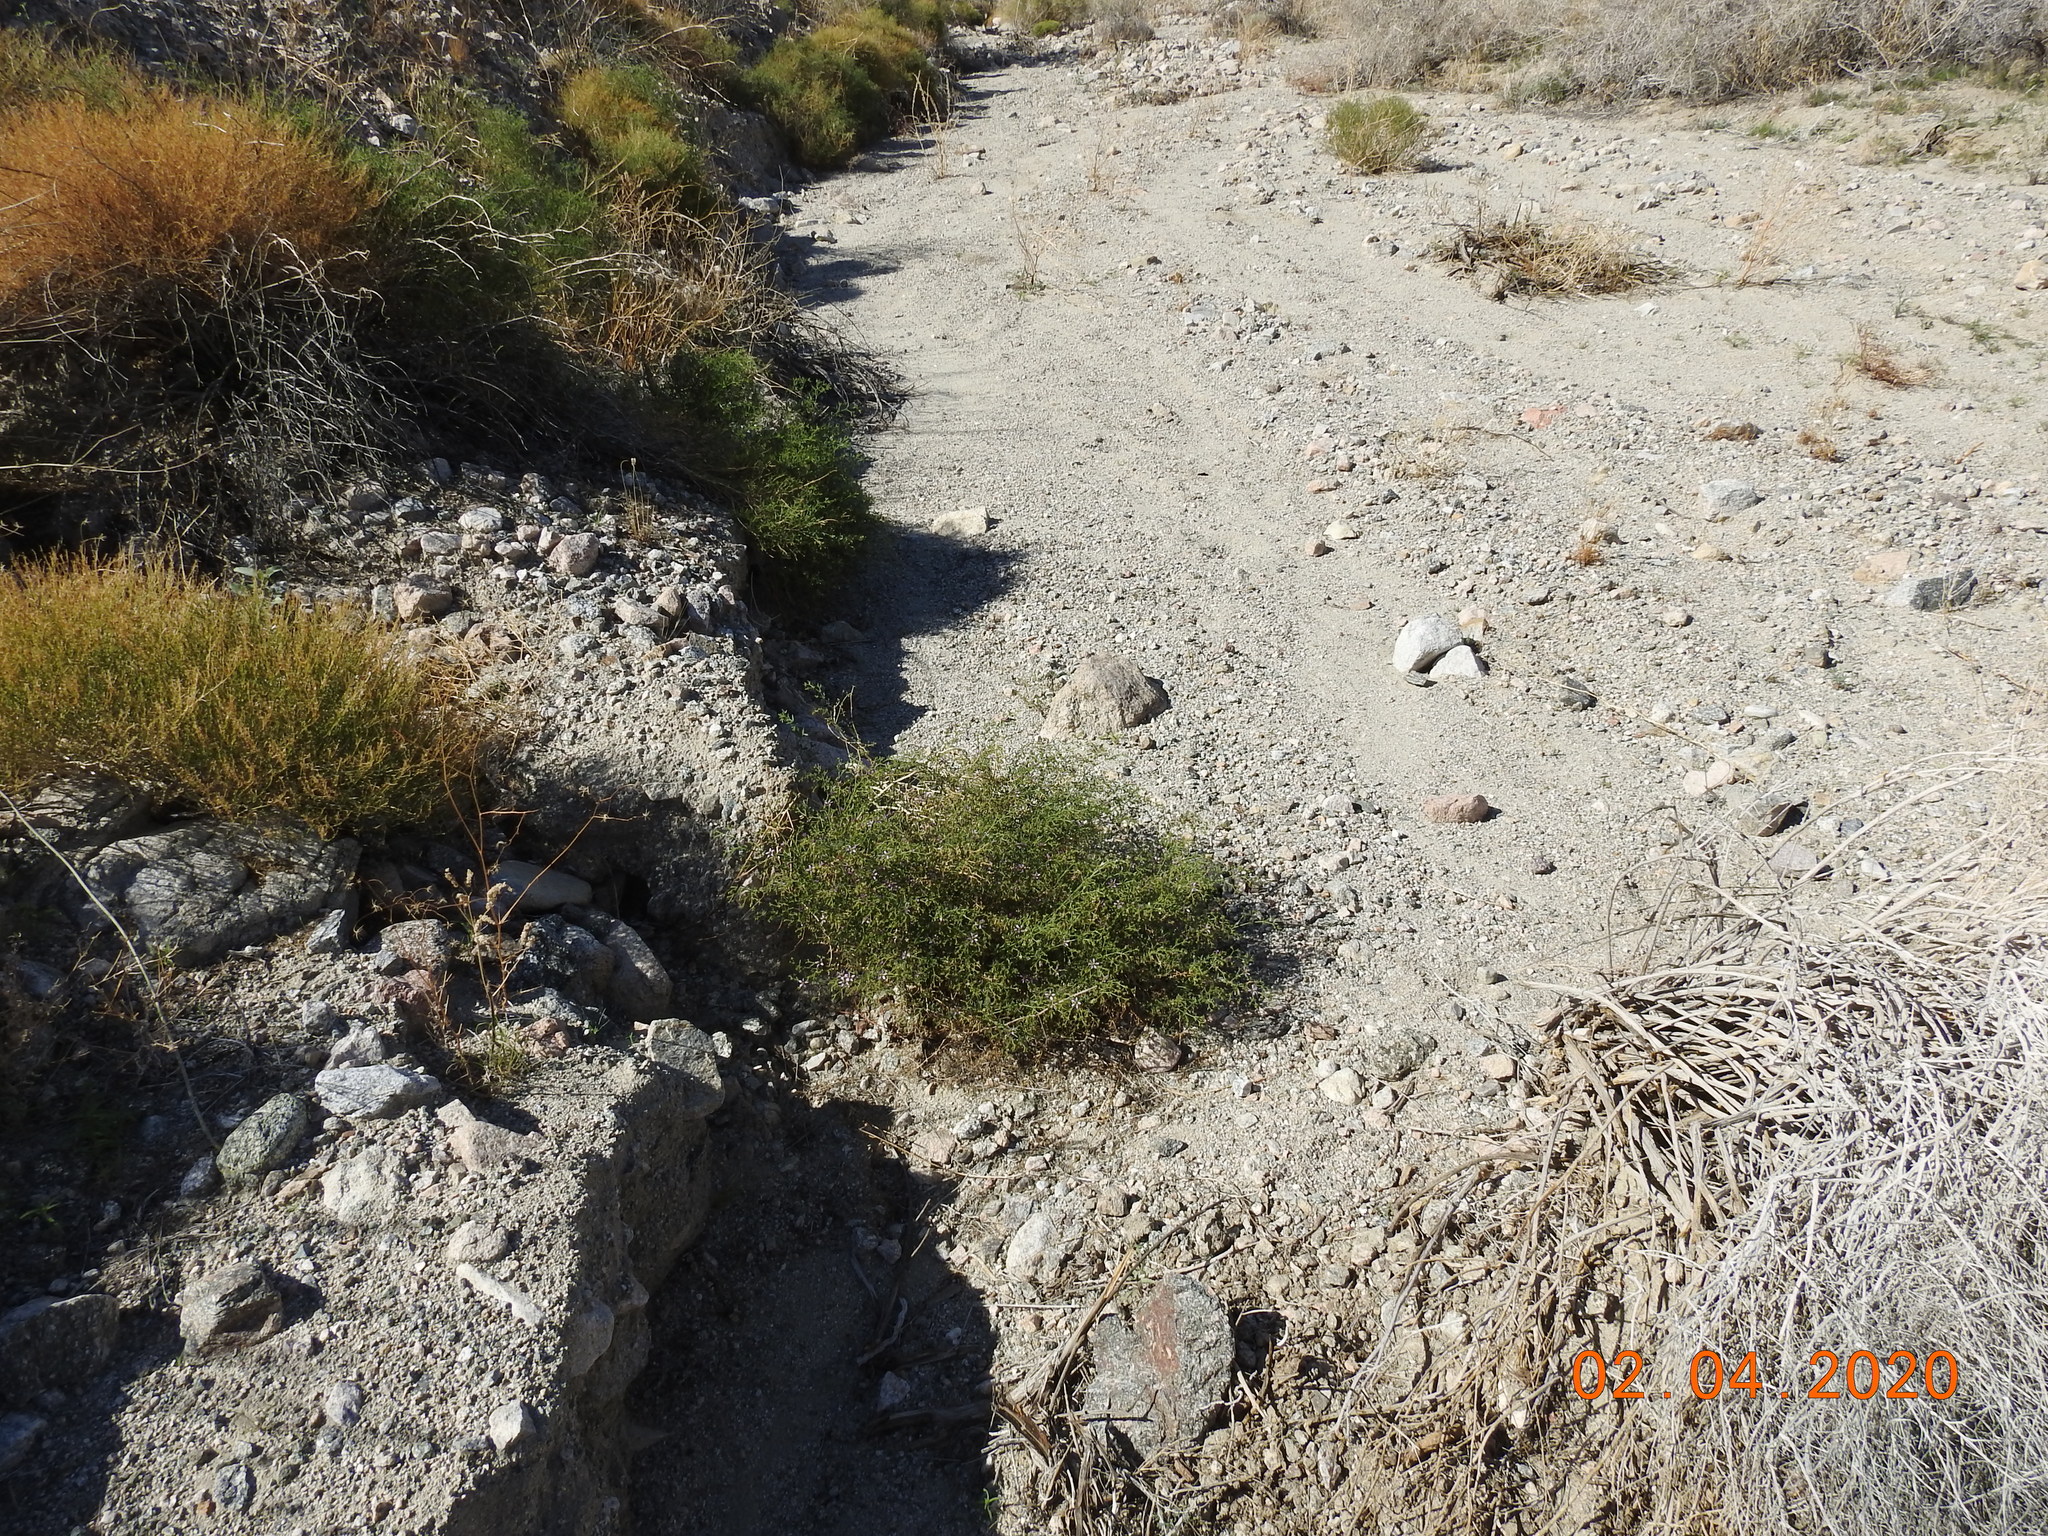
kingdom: Plantae
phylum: Tracheophyta
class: Magnoliopsida
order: Zygophyllales
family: Zygophyllaceae
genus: Fagonia
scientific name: Fagonia laevis
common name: California fagonbush
